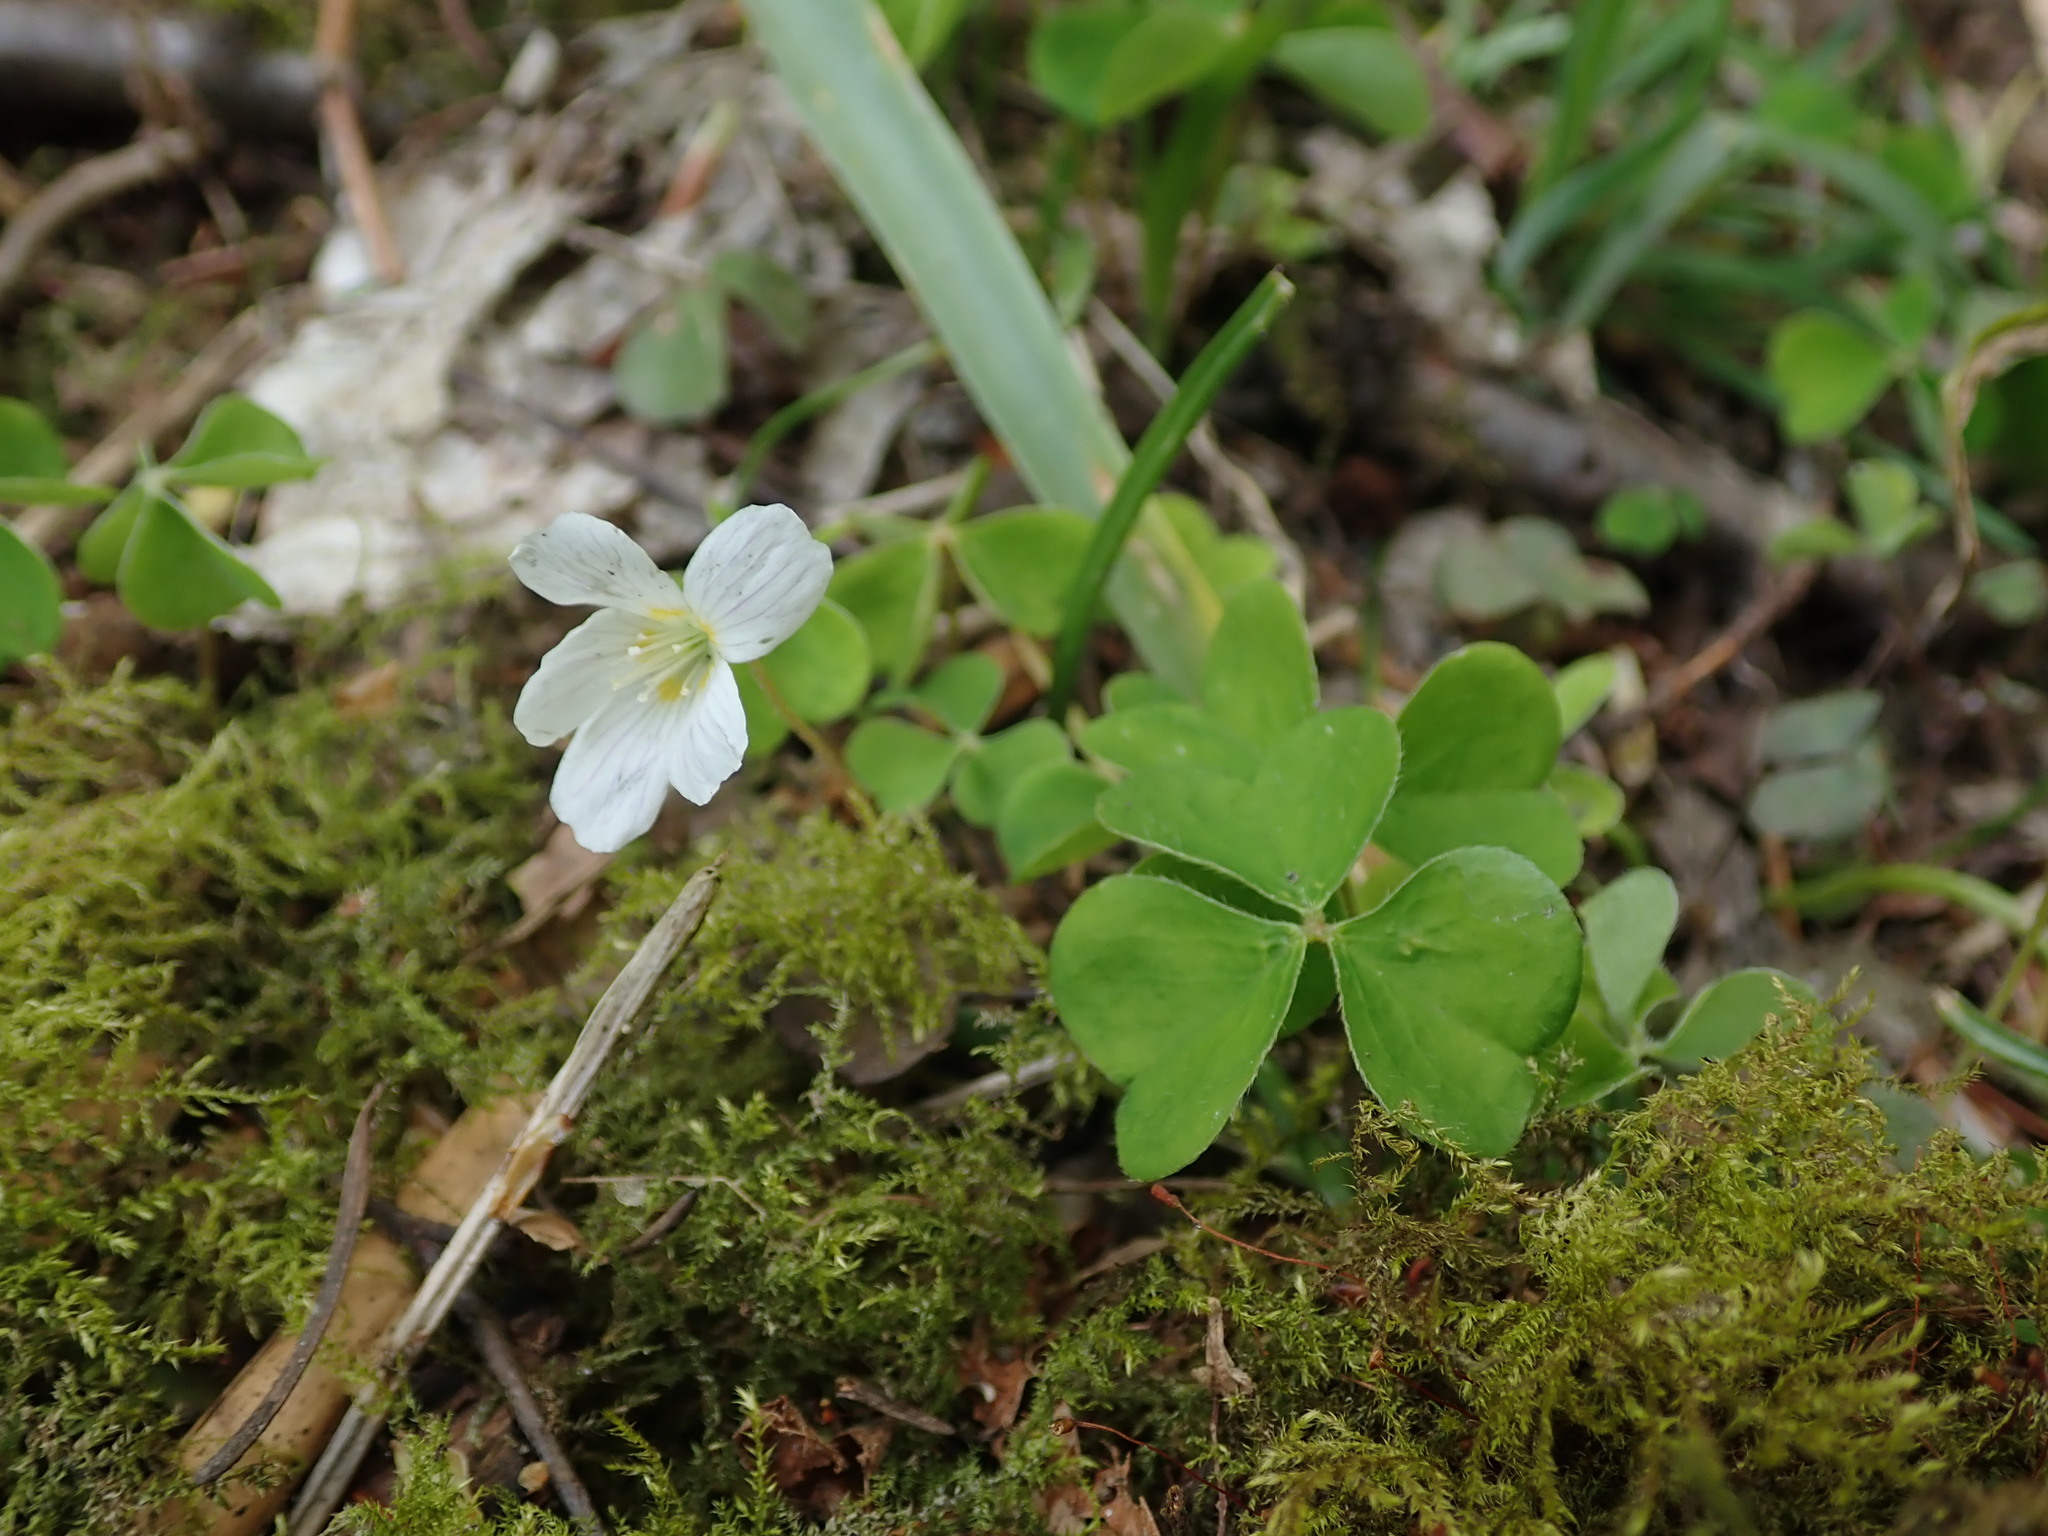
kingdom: Plantae
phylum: Tracheophyta
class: Magnoliopsida
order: Oxalidales
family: Oxalidaceae
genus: Oxalis
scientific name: Oxalis acetosella
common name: Wood-sorrel
